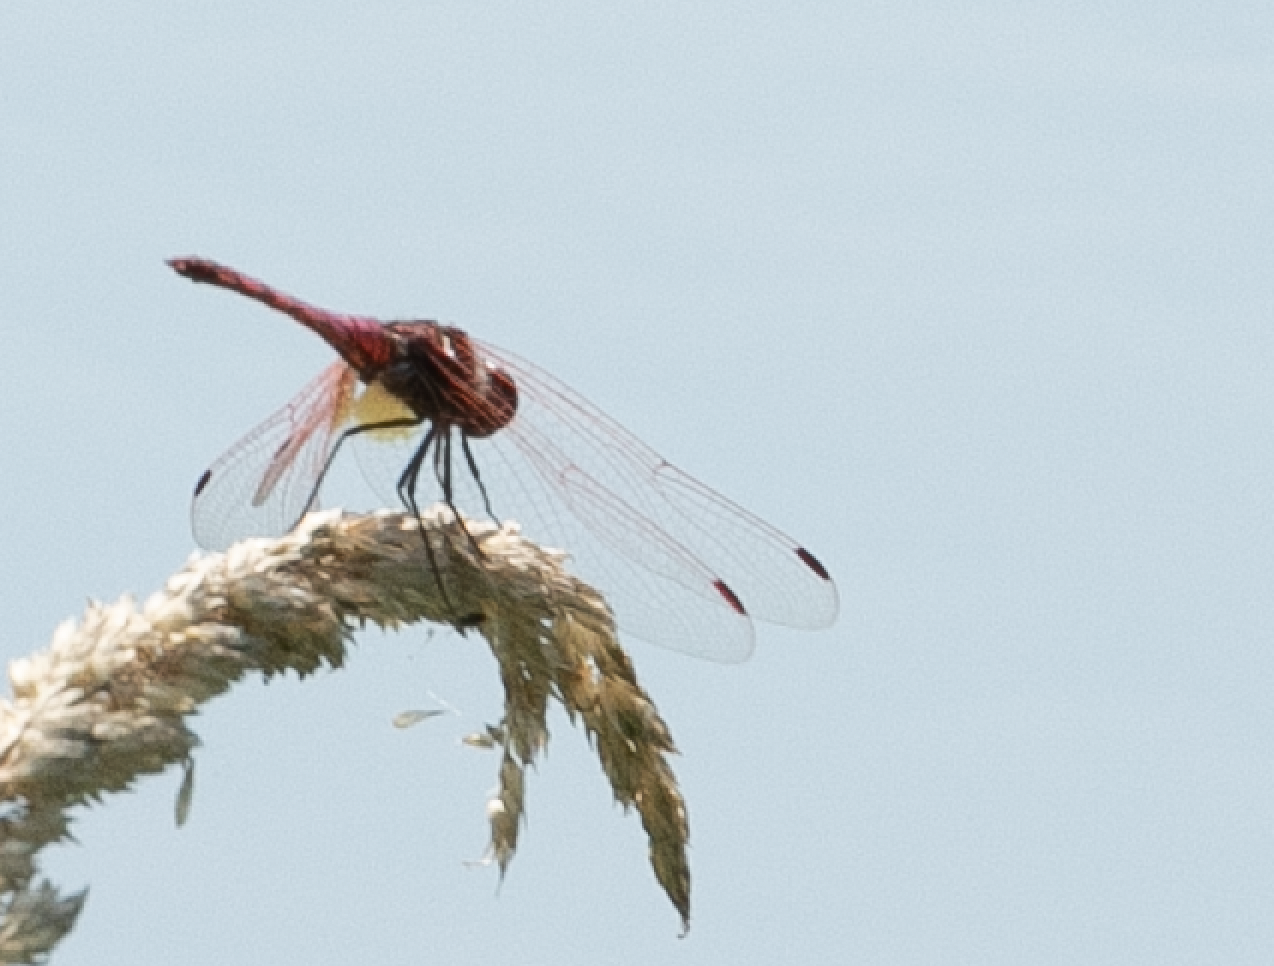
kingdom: Animalia
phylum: Arthropoda
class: Insecta
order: Odonata
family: Libellulidae
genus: Trithemis
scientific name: Trithemis annulata
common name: Violet dropwing
